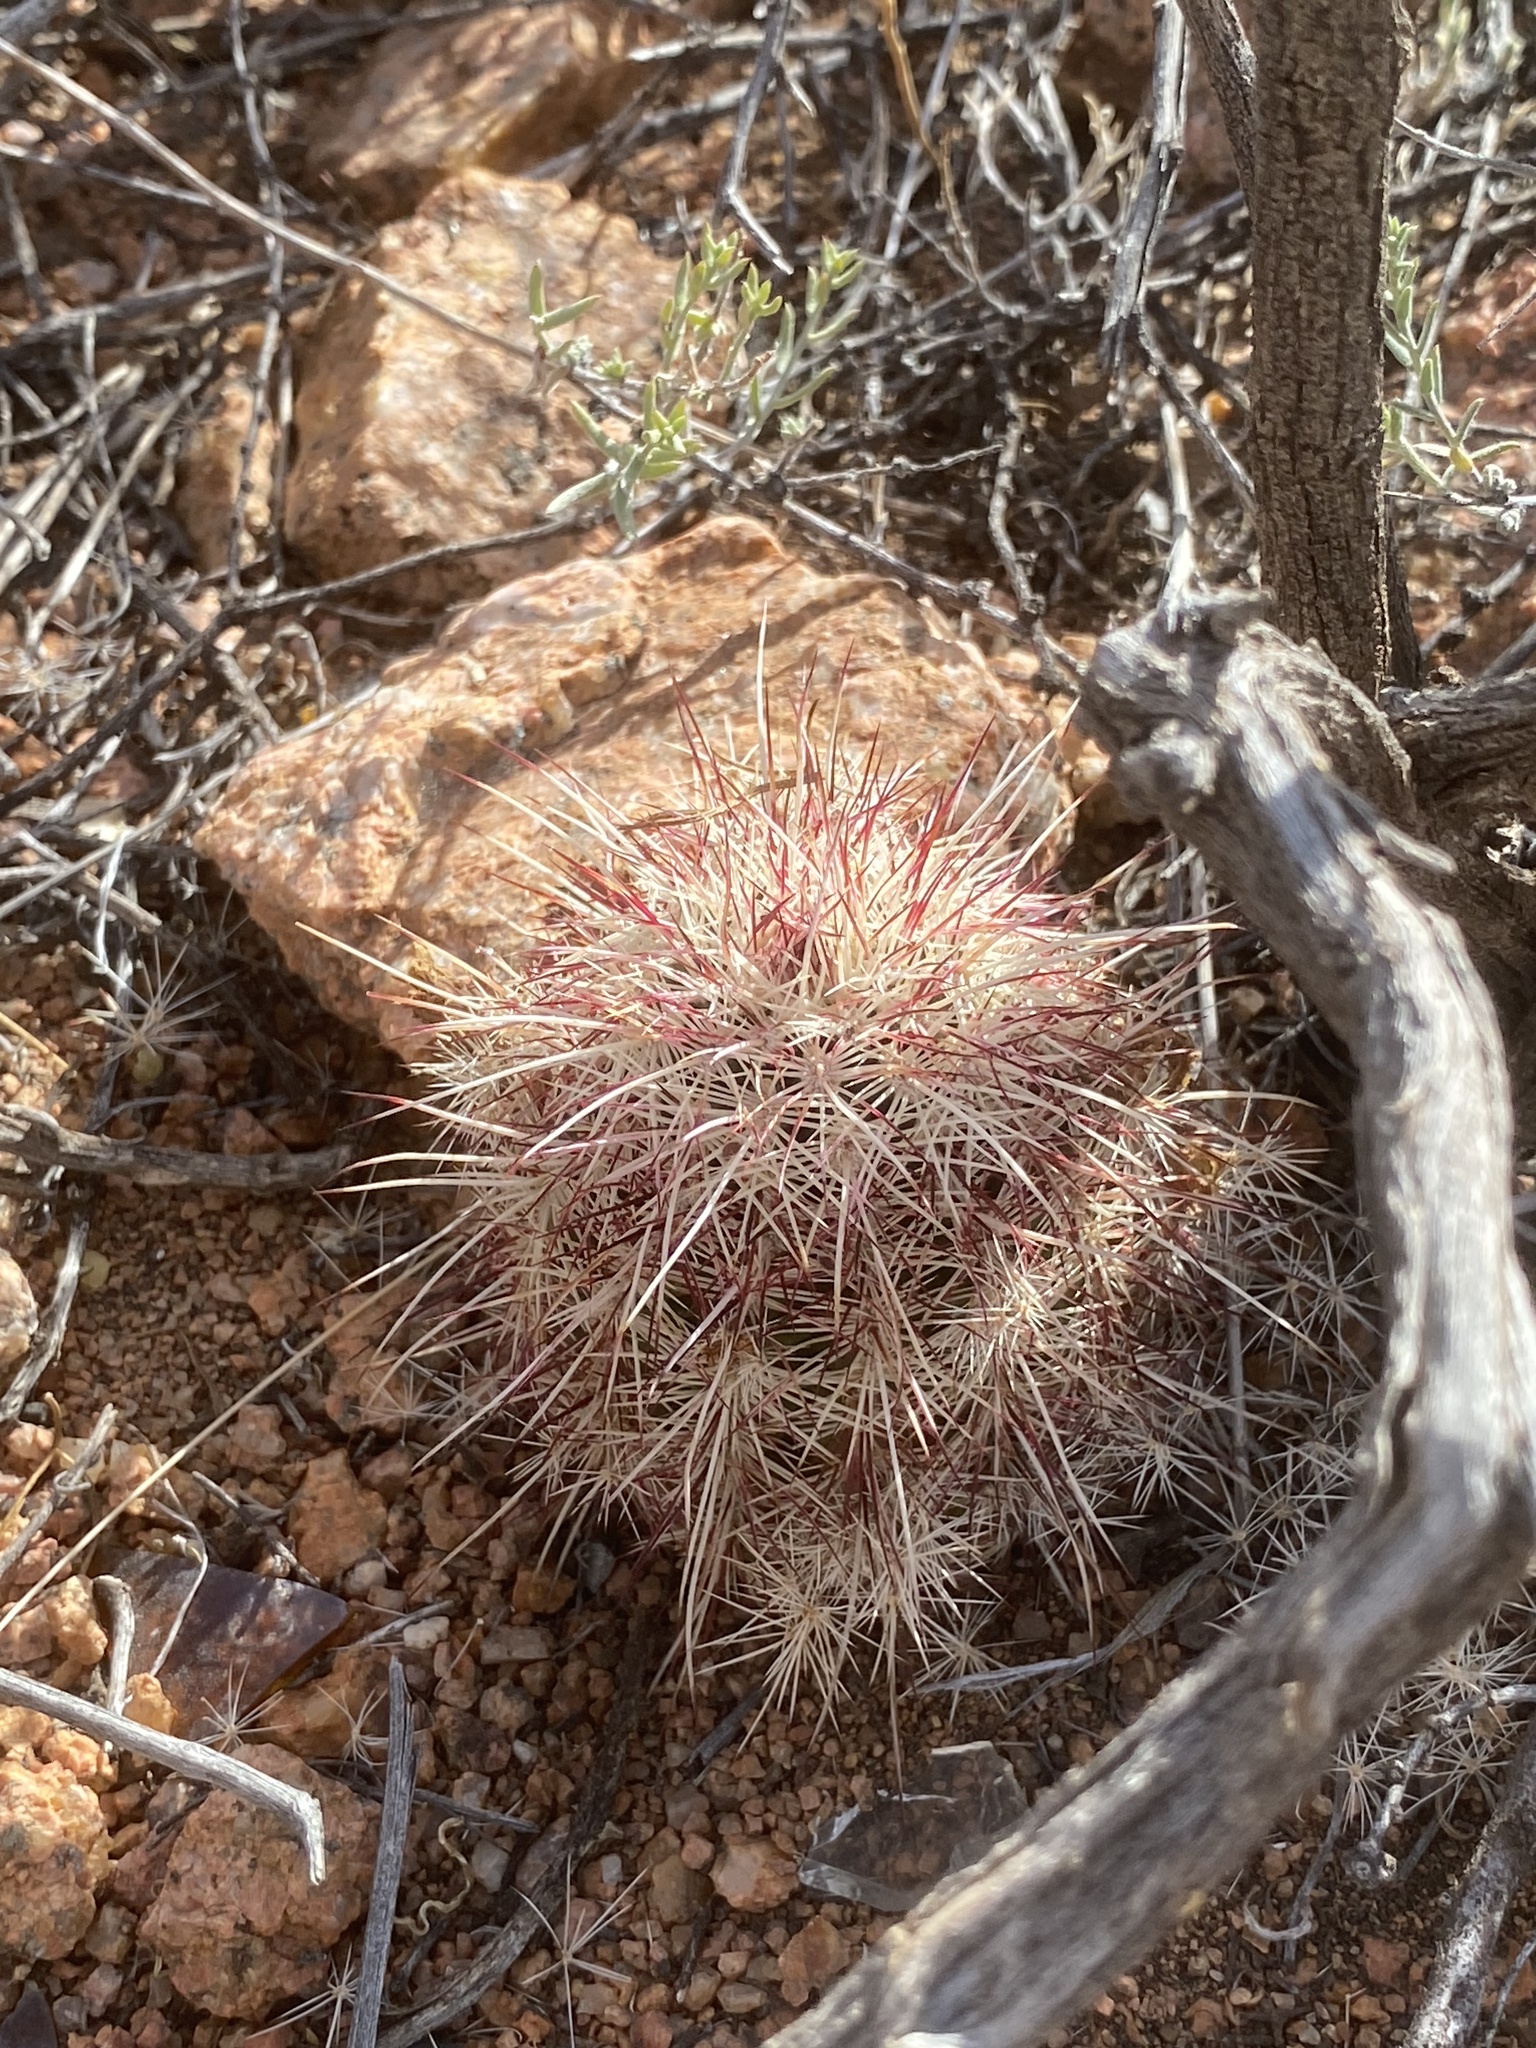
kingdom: Plantae
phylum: Tracheophyta
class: Magnoliopsida
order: Caryophyllales
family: Cactaceae
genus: Echinocereus
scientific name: Echinocereus viridiflorus
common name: Nylon hedgehog cactus
